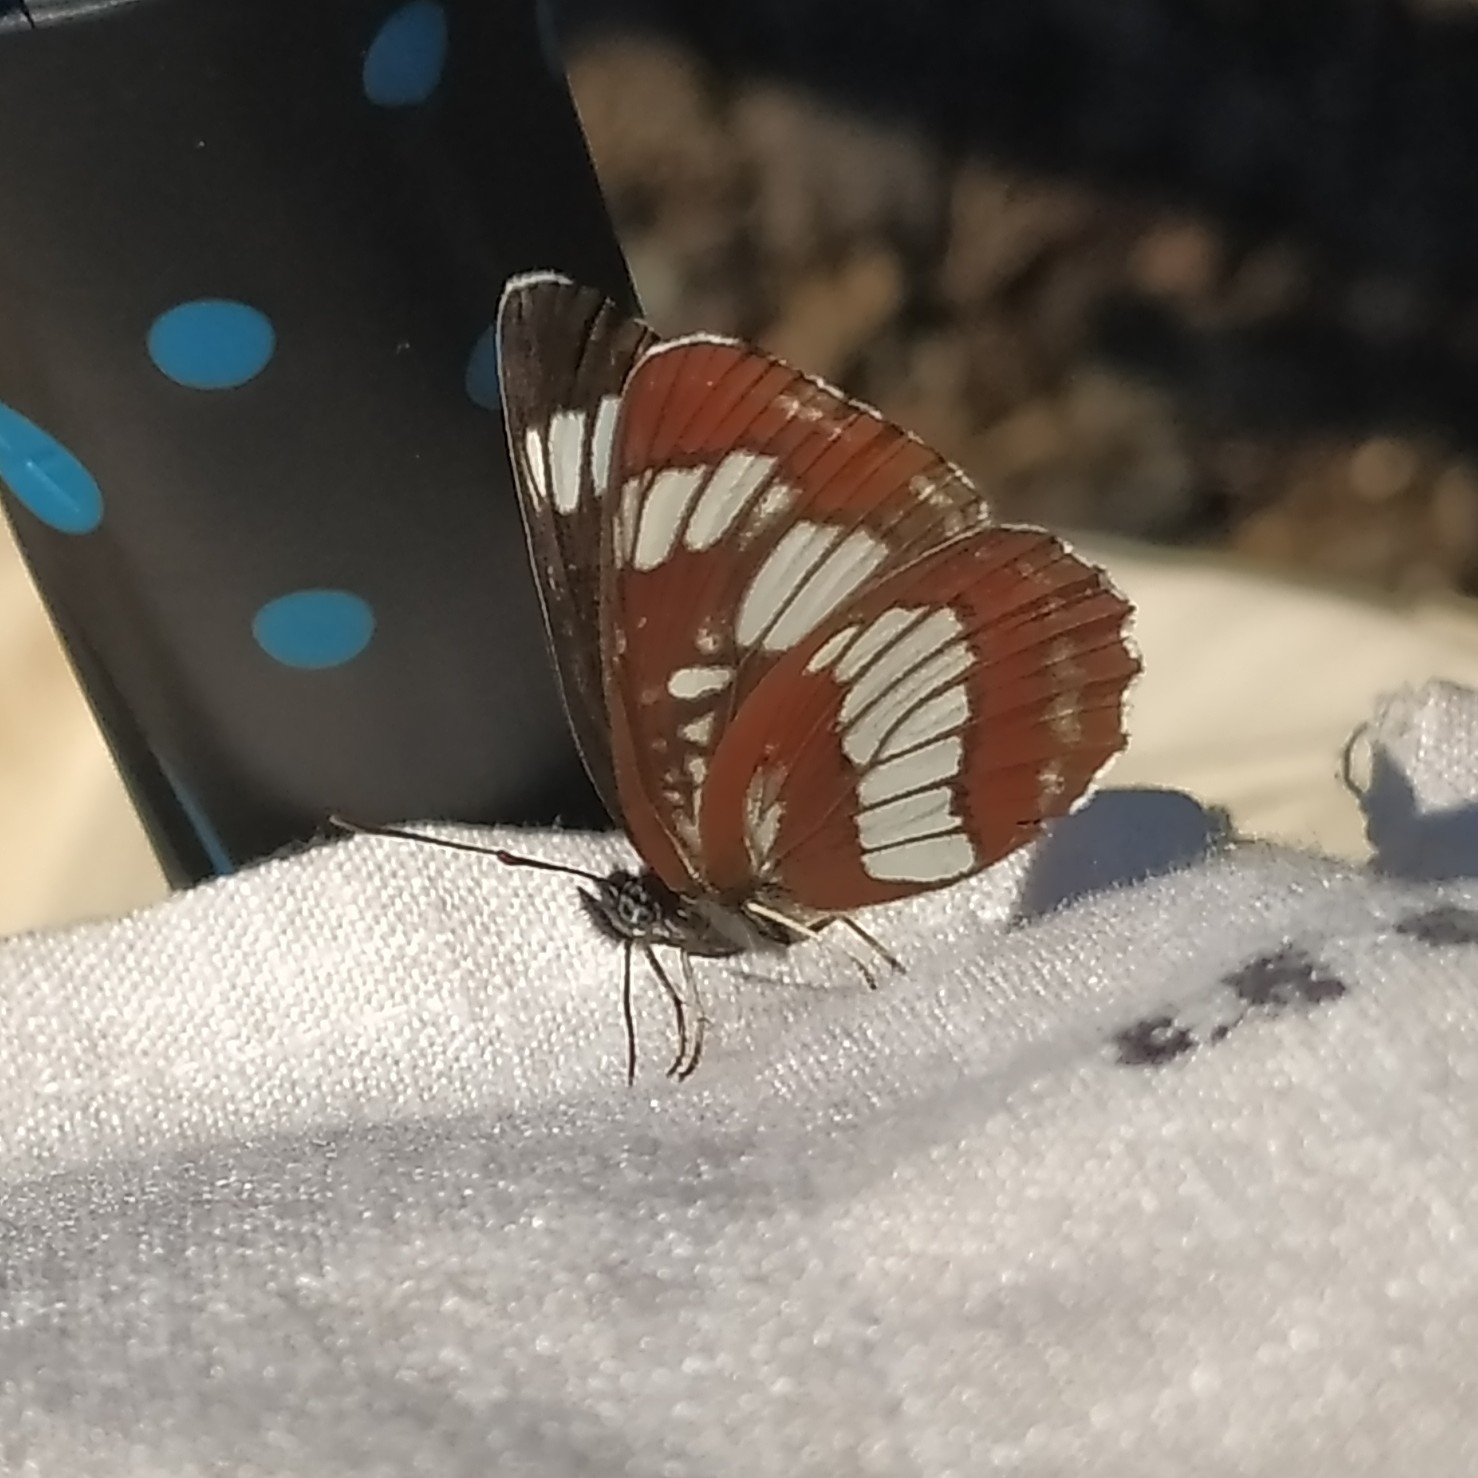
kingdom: Animalia
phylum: Arthropoda
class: Insecta
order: Lepidoptera
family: Nymphalidae
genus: Neptis
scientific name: Neptis rivularis
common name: Hungarian glider
